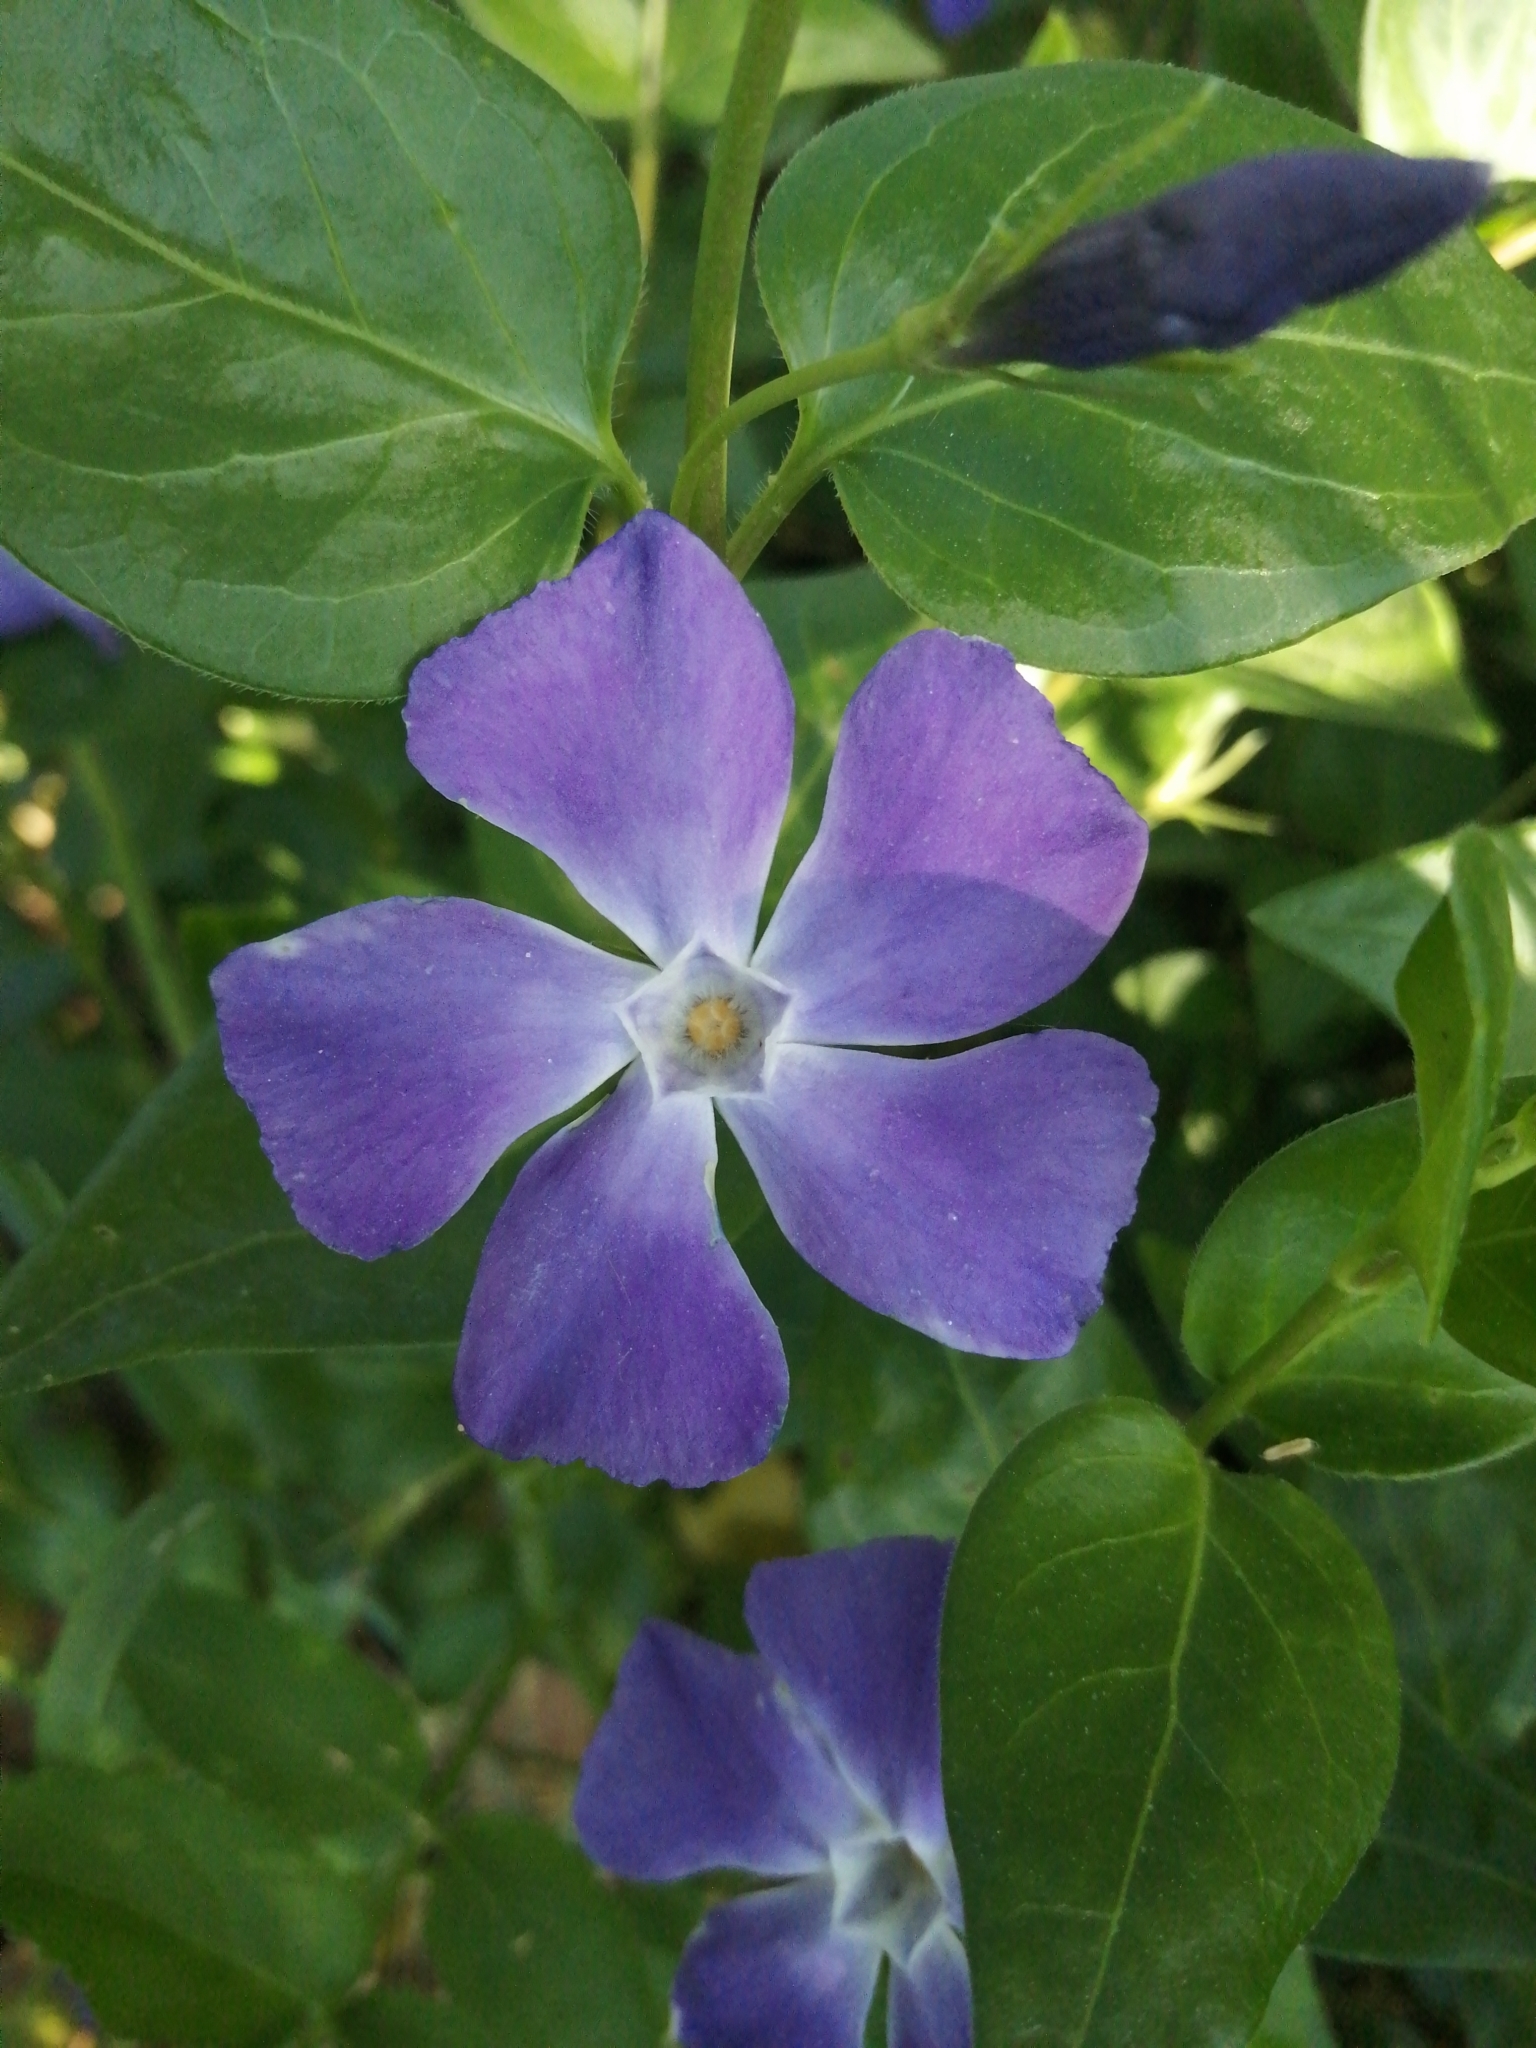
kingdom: Plantae
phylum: Tracheophyta
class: Magnoliopsida
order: Gentianales
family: Apocynaceae
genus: Vinca
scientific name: Vinca major
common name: Greater periwinkle
